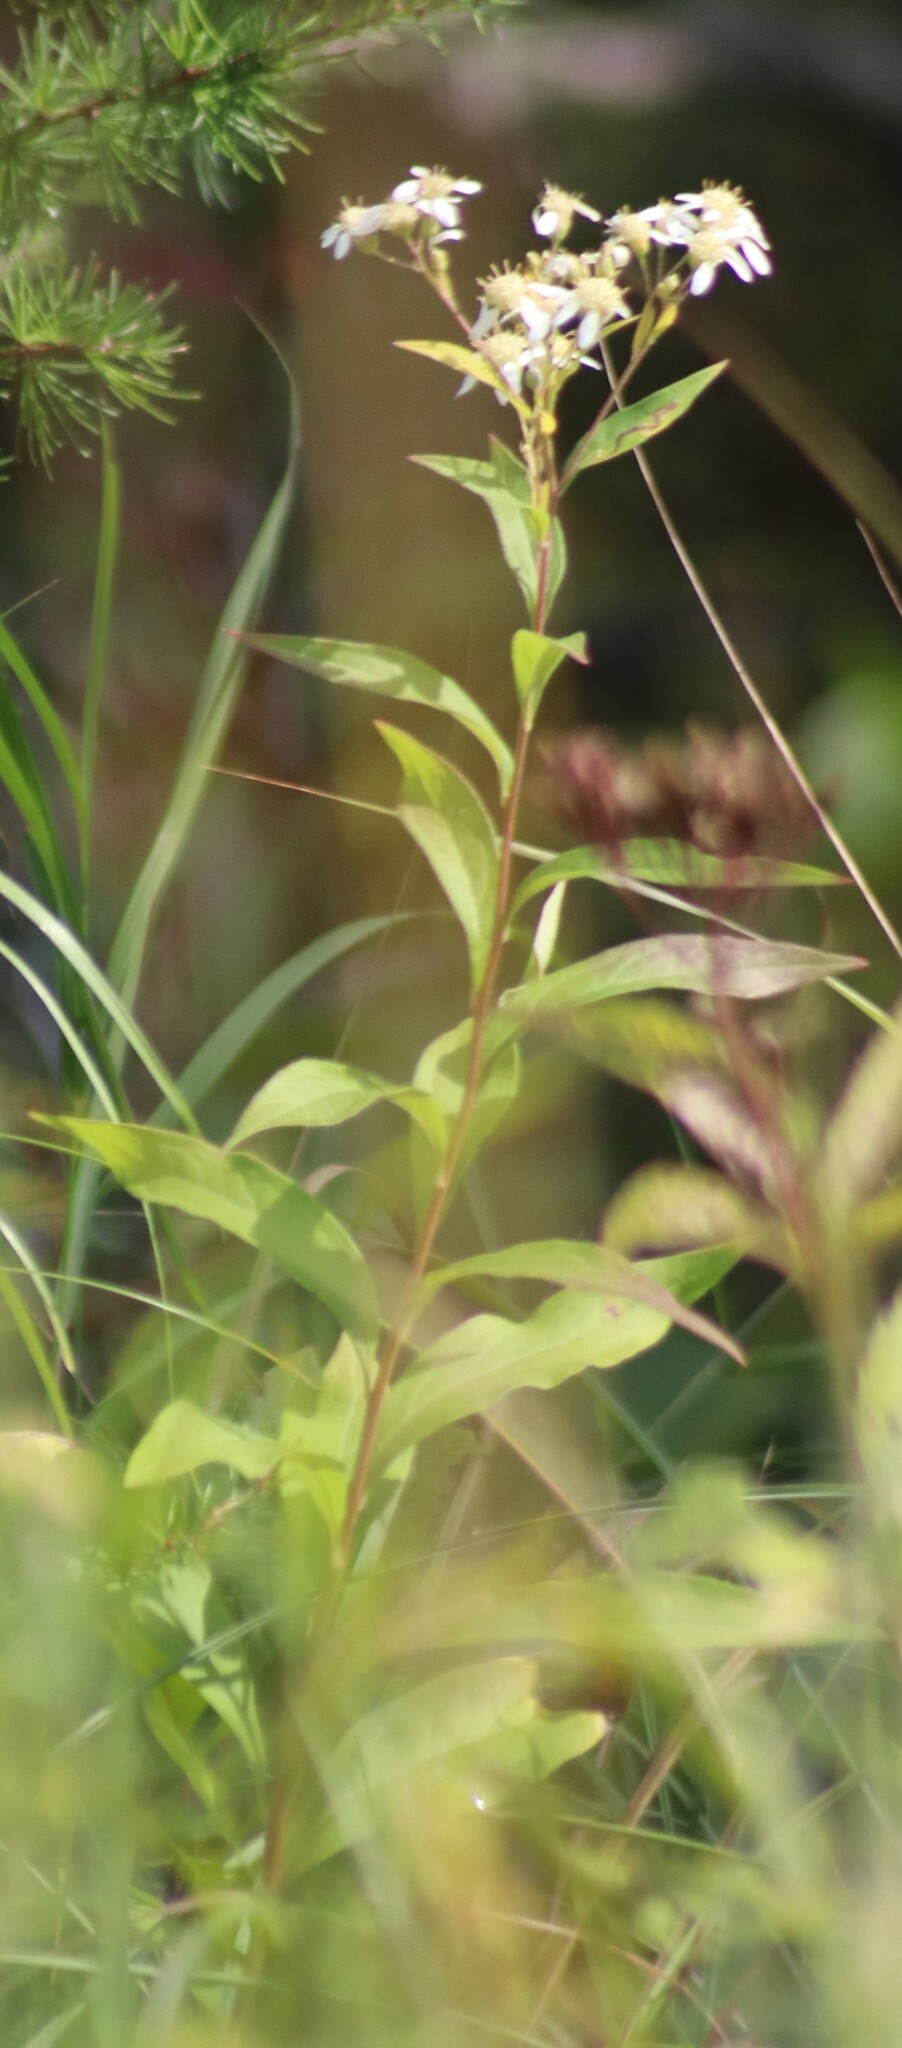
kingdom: Plantae
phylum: Tracheophyta
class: Magnoliopsida
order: Asterales
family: Asteraceae
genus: Doellingeria
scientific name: Doellingeria umbellata
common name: Flat-top white aster
